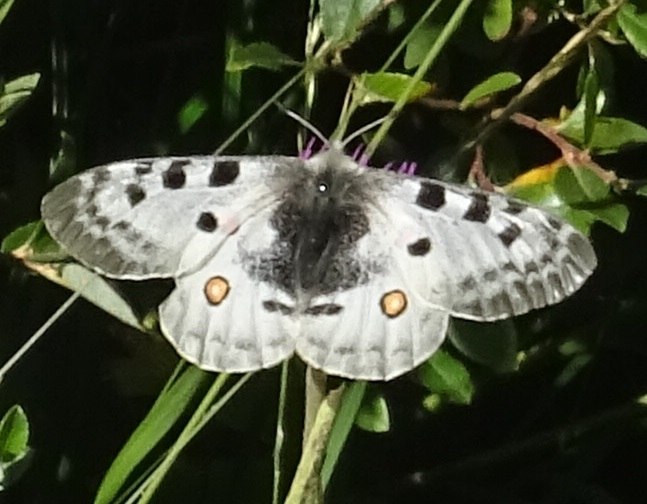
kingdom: Animalia
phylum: Arthropoda
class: Insecta
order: Lepidoptera
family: Papilionidae
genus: Parnassius
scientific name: Parnassius apollo
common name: Apollo
